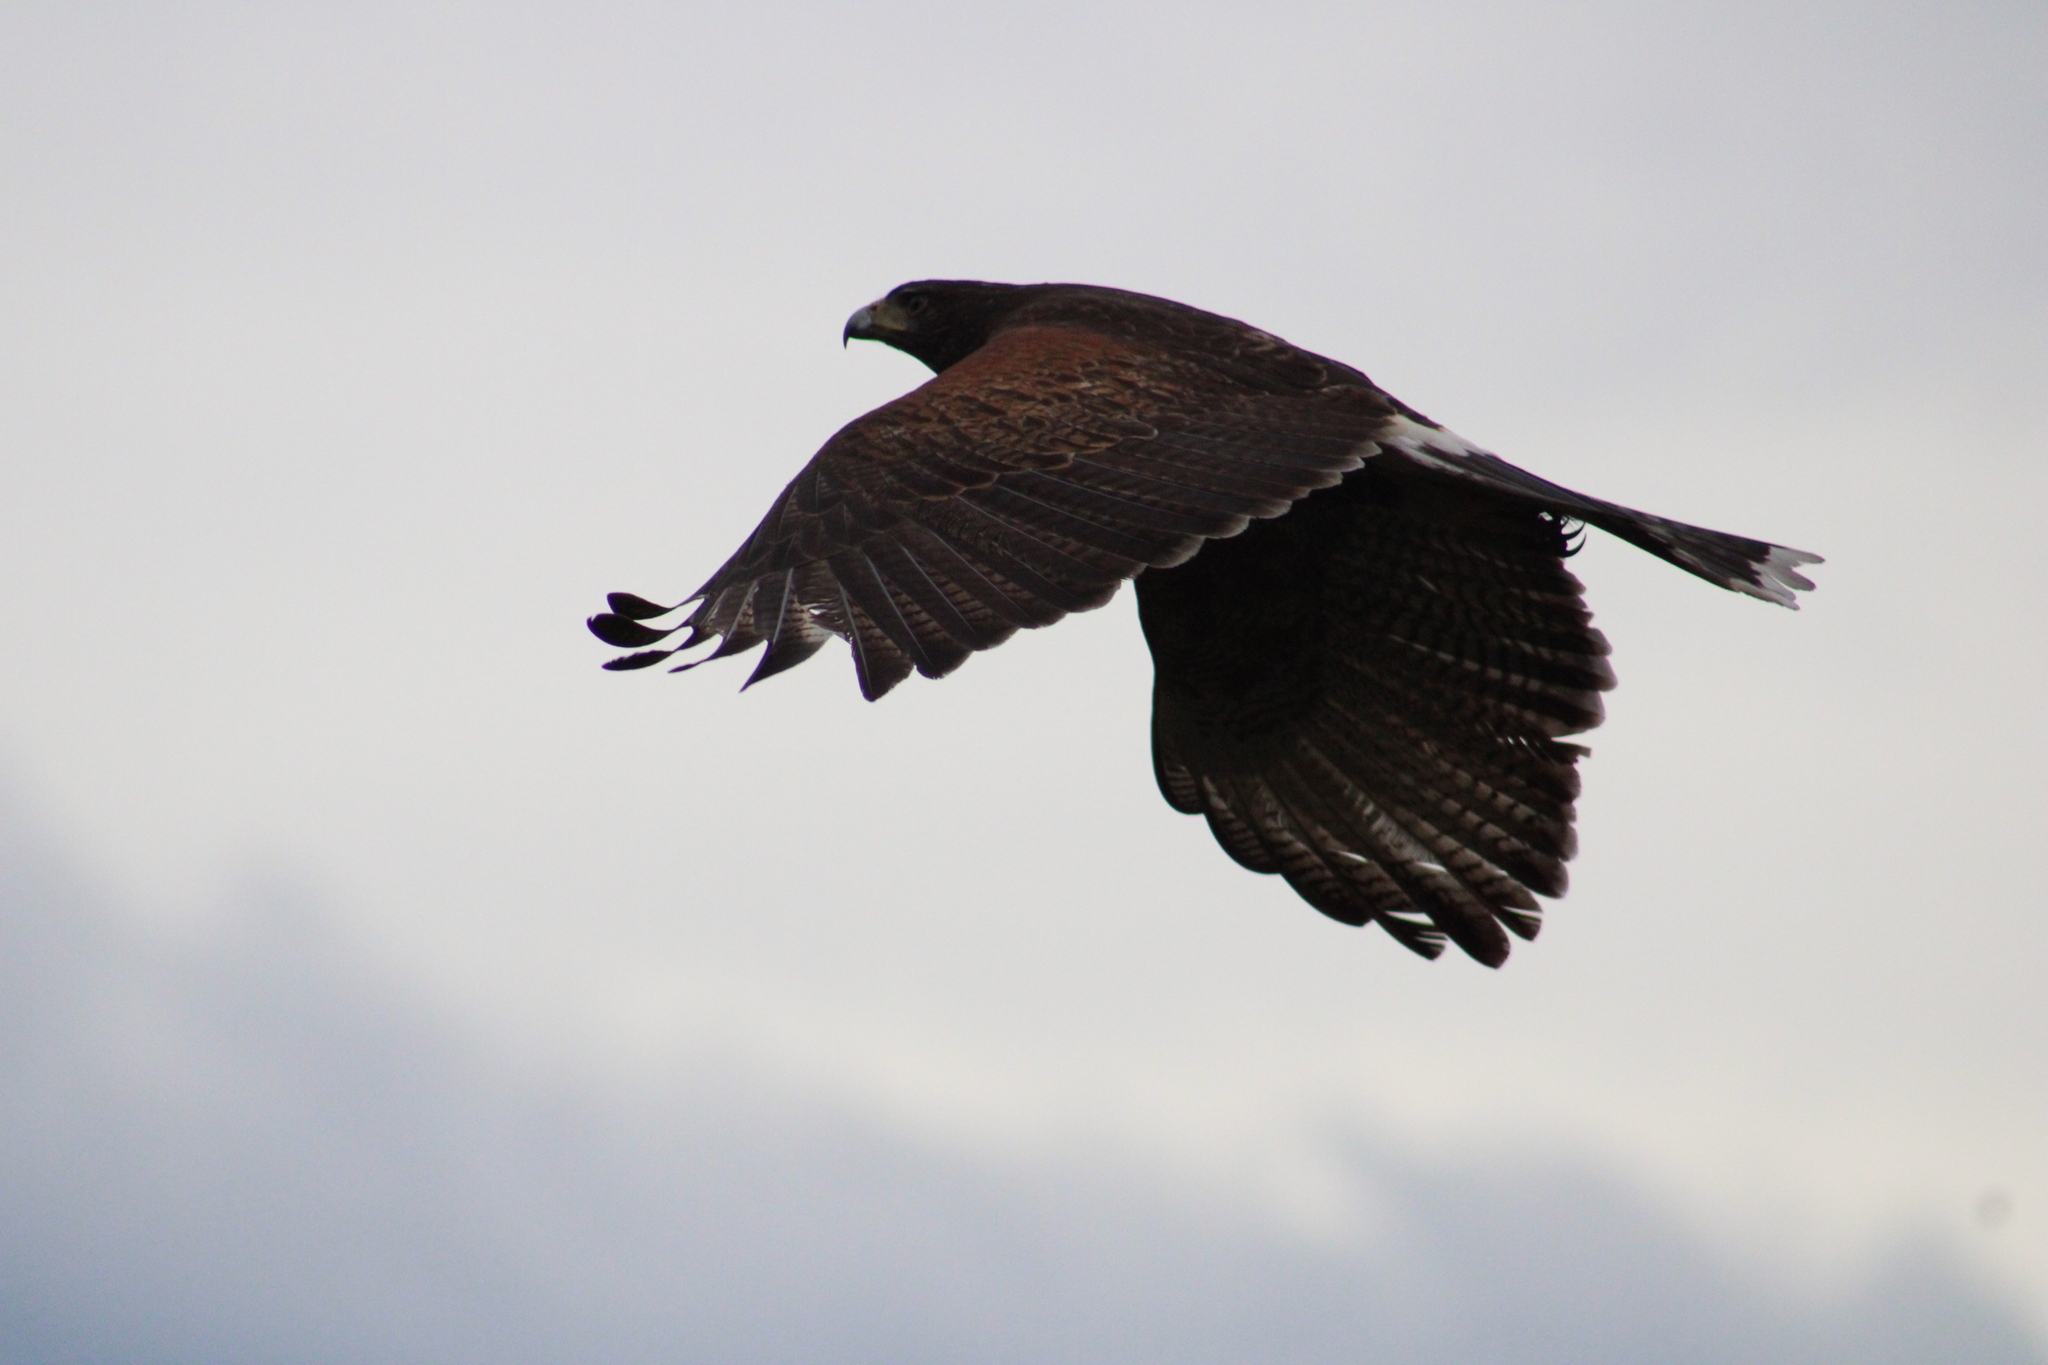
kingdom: Animalia
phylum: Chordata
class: Aves
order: Accipitriformes
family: Accipitridae
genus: Parabuteo
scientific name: Parabuteo unicinctus
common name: Harris's hawk
